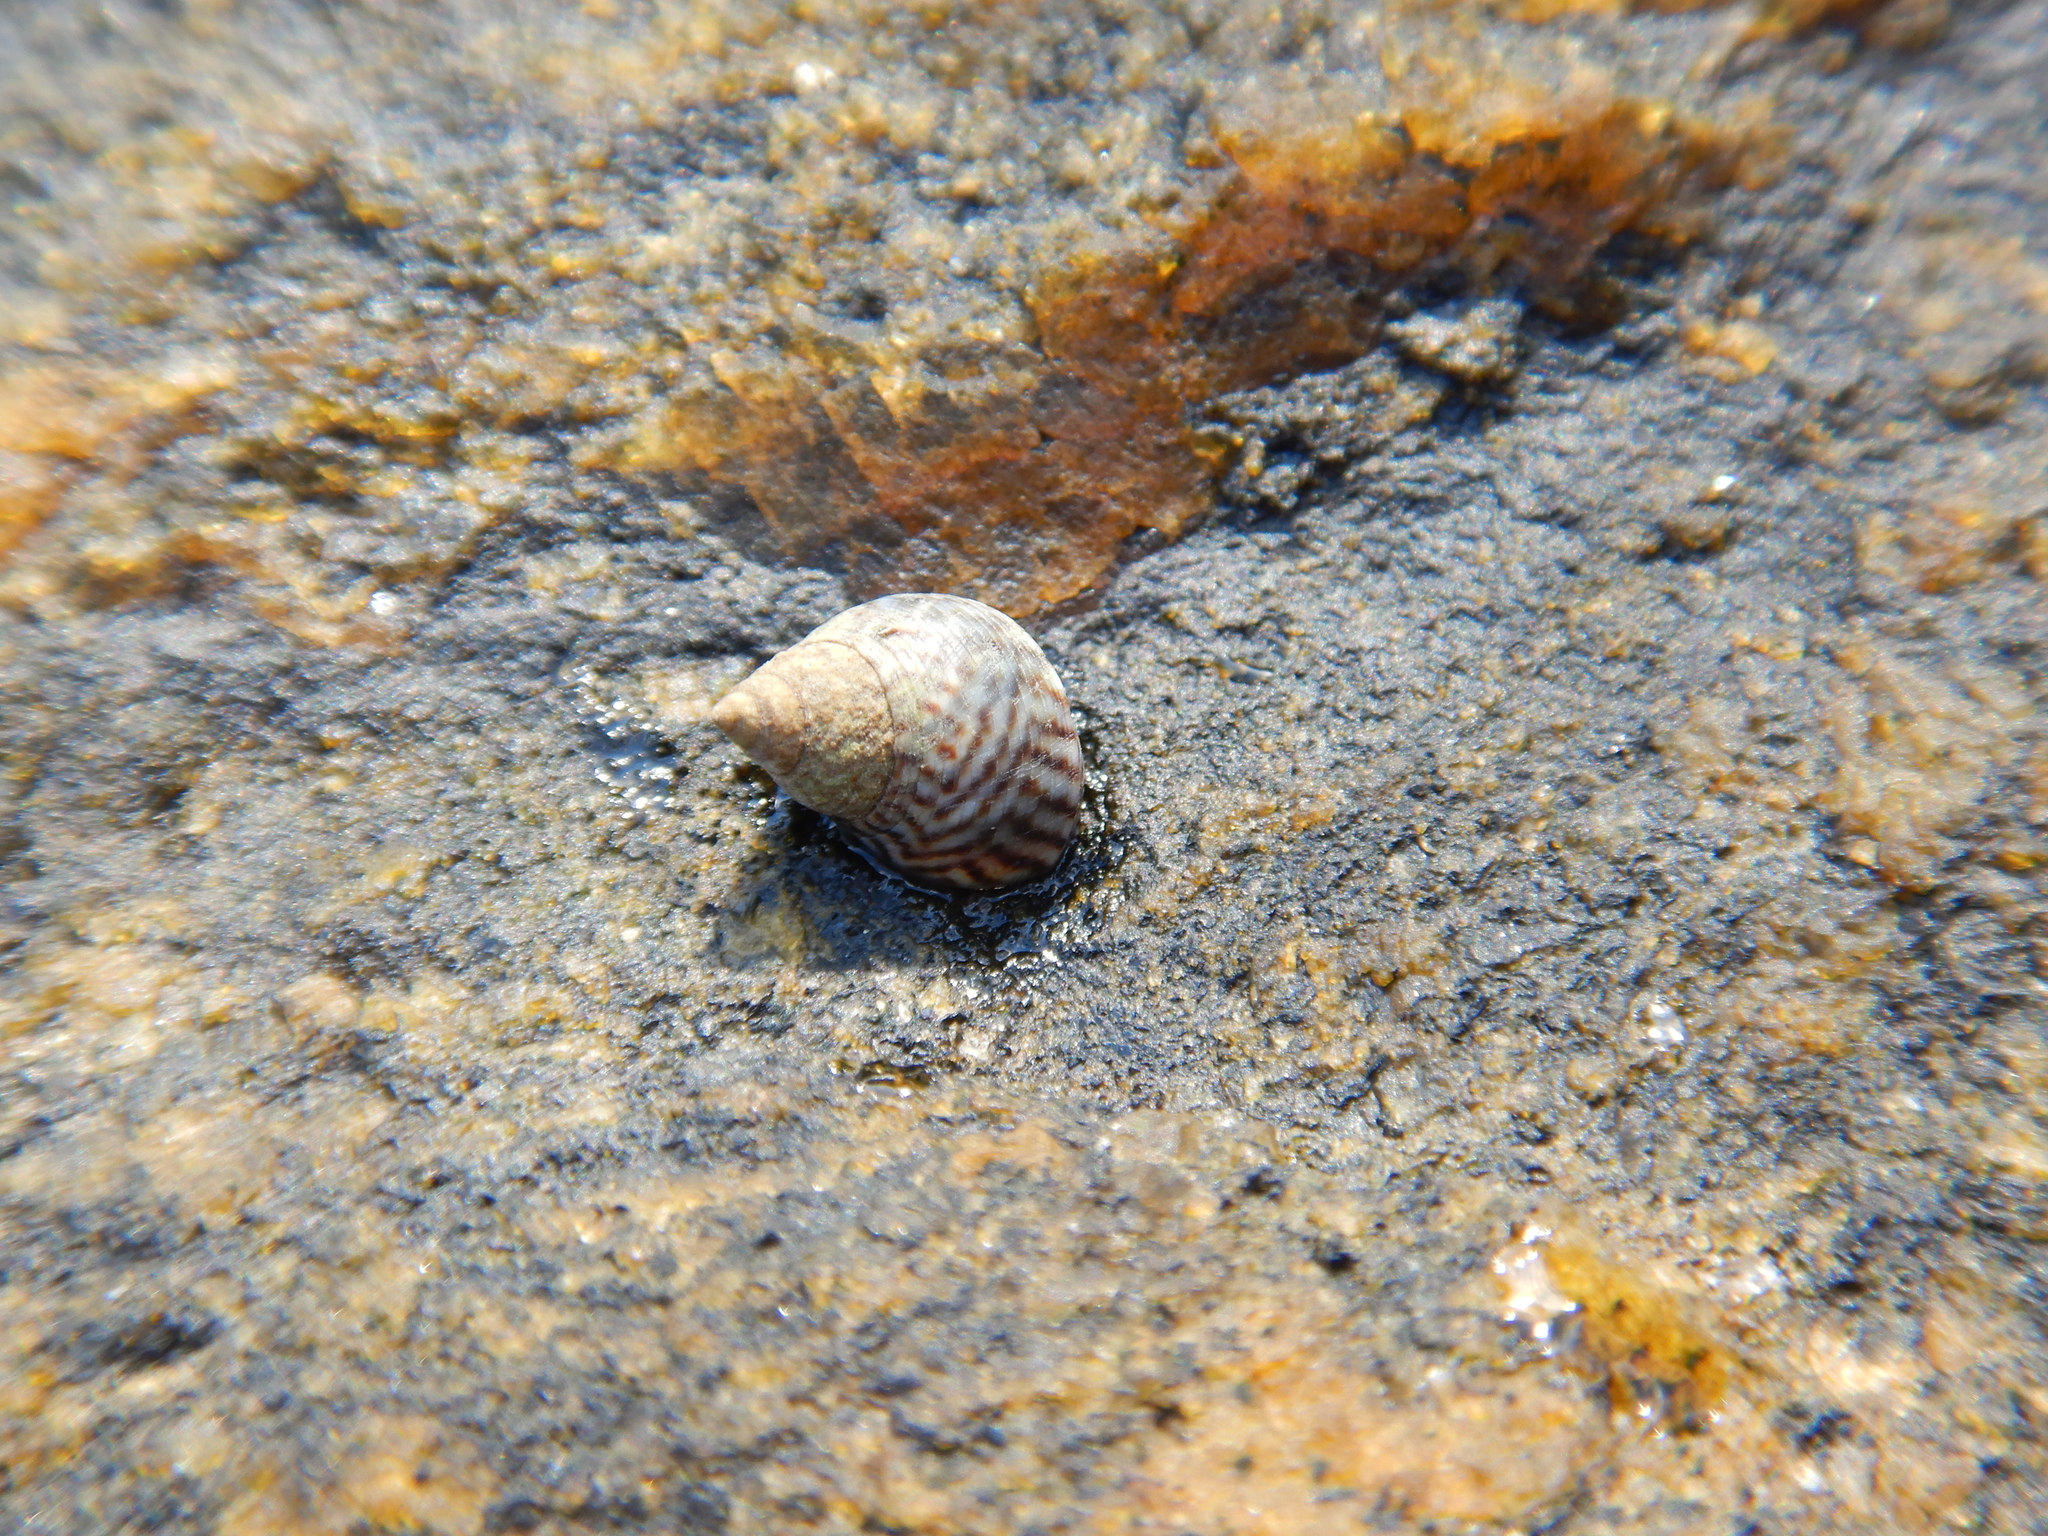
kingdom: Animalia
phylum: Mollusca
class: Gastropoda
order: Littorinimorpha
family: Littorinidae
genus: Echinolittorina
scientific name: Echinolittorina lineolata
